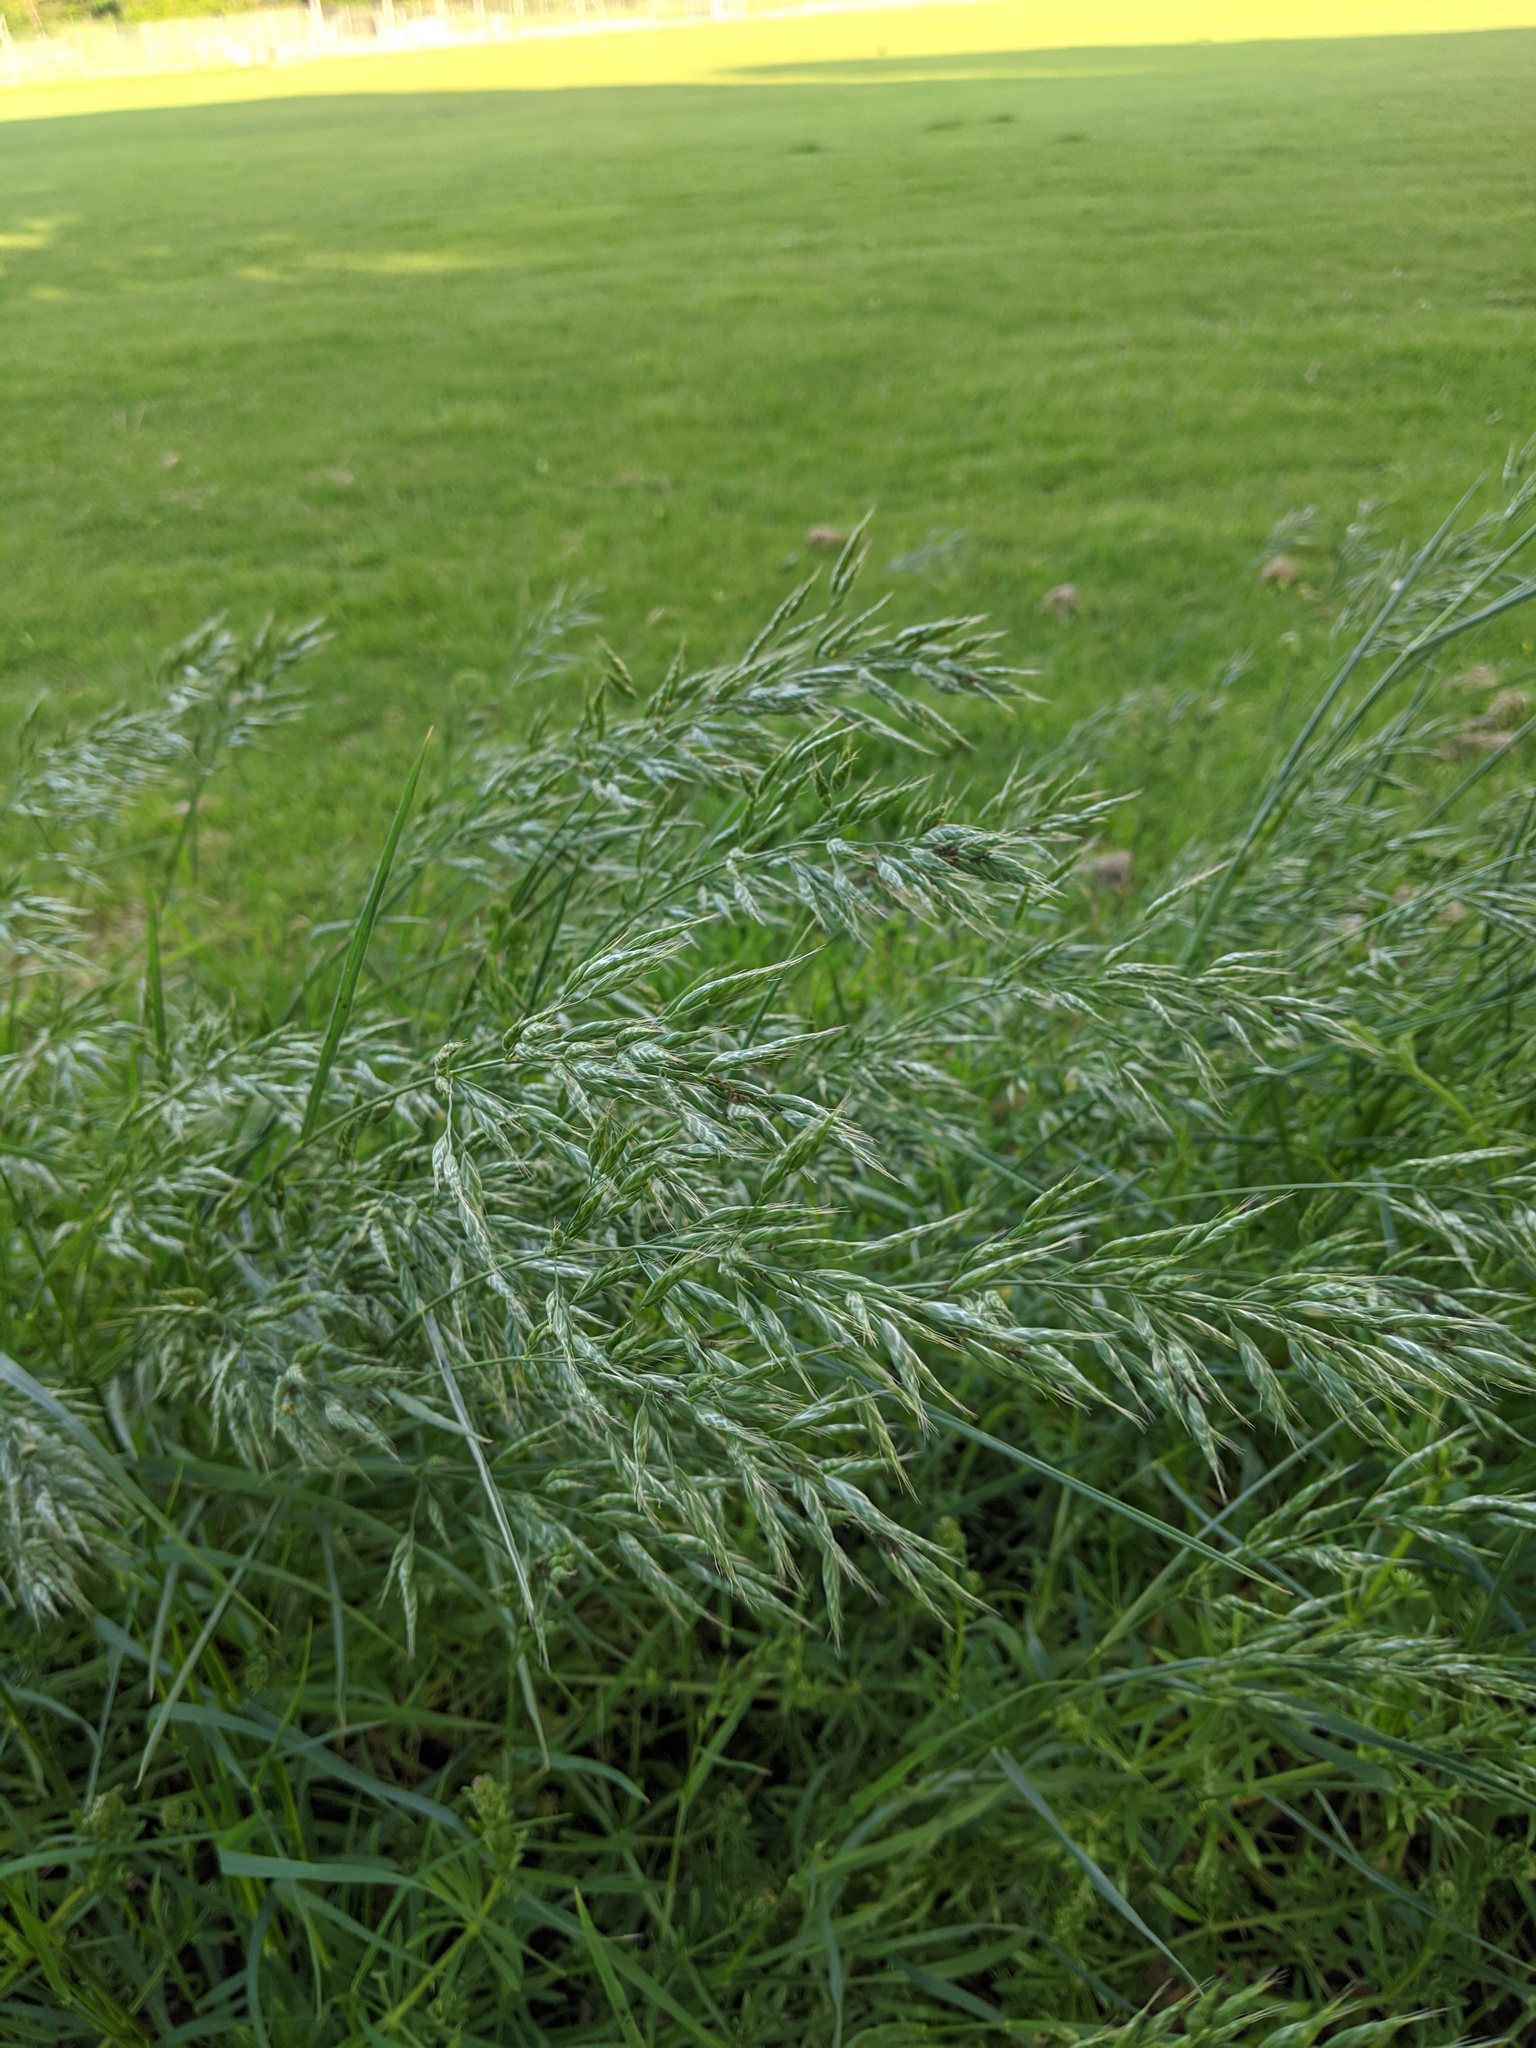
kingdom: Plantae
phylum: Tracheophyta
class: Liliopsida
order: Poales
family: Poaceae
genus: Bromus
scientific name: Bromus hordeaceus
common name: Soft brome
